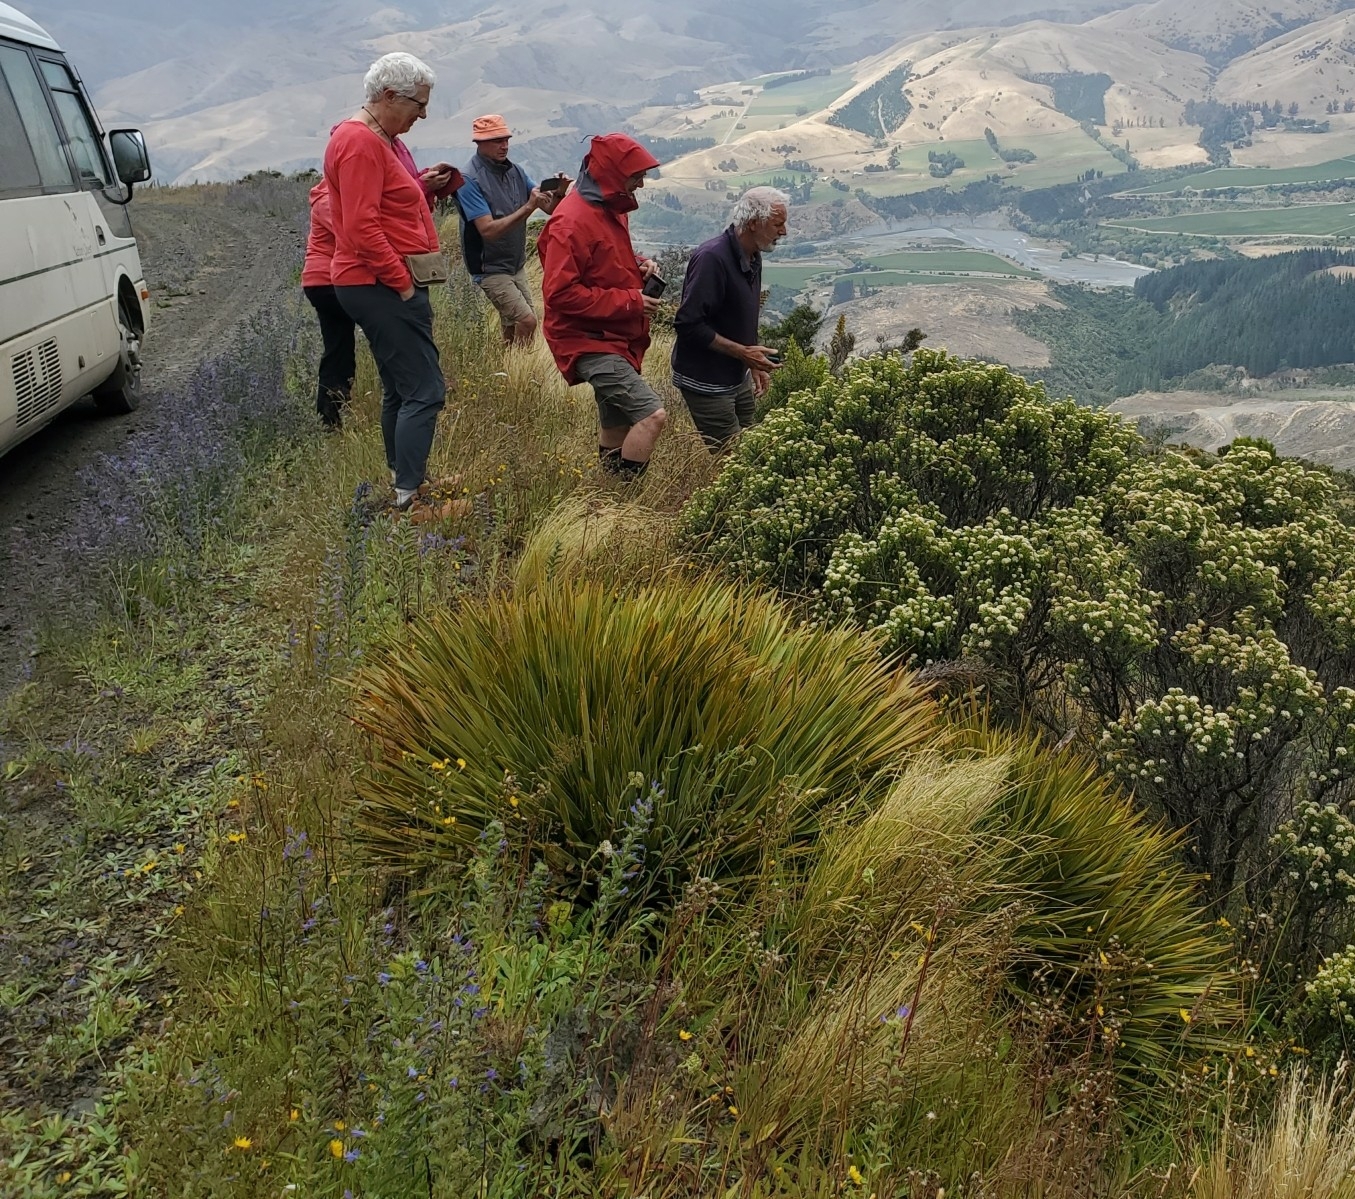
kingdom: Plantae
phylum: Tracheophyta
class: Magnoliopsida
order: Apiales
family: Apiaceae
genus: Aciphylla
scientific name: Aciphylla aurea
